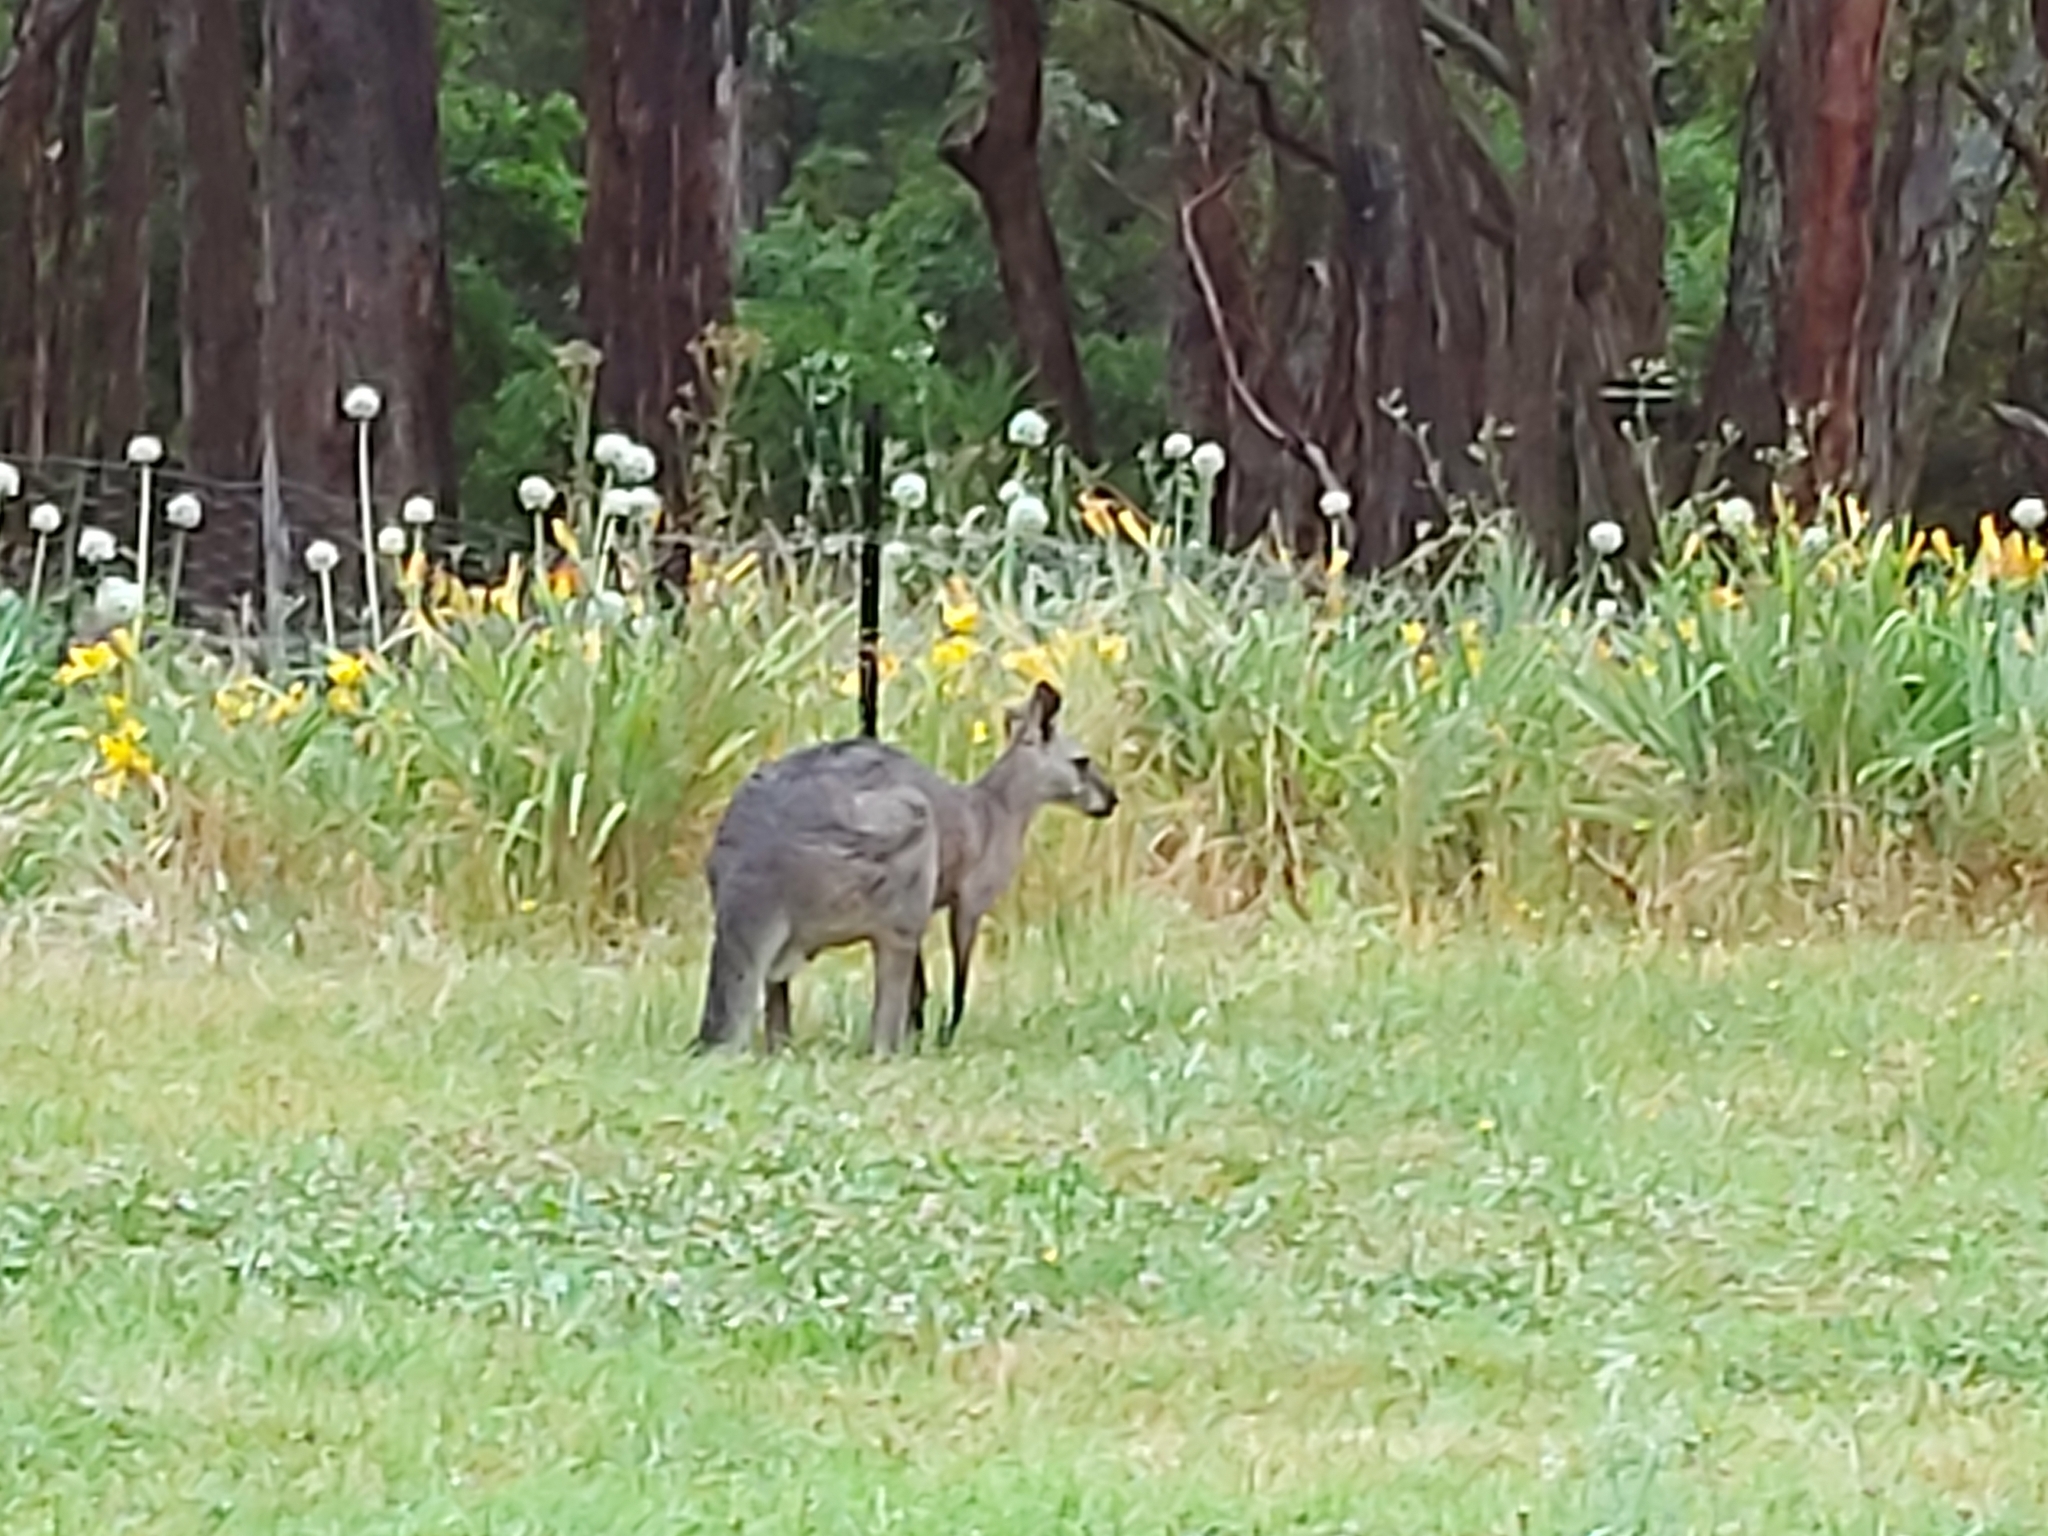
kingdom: Animalia
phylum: Chordata
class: Mammalia
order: Diprotodontia
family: Macropodidae
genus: Macropus
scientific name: Macropus giganteus
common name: Eastern grey kangaroo
